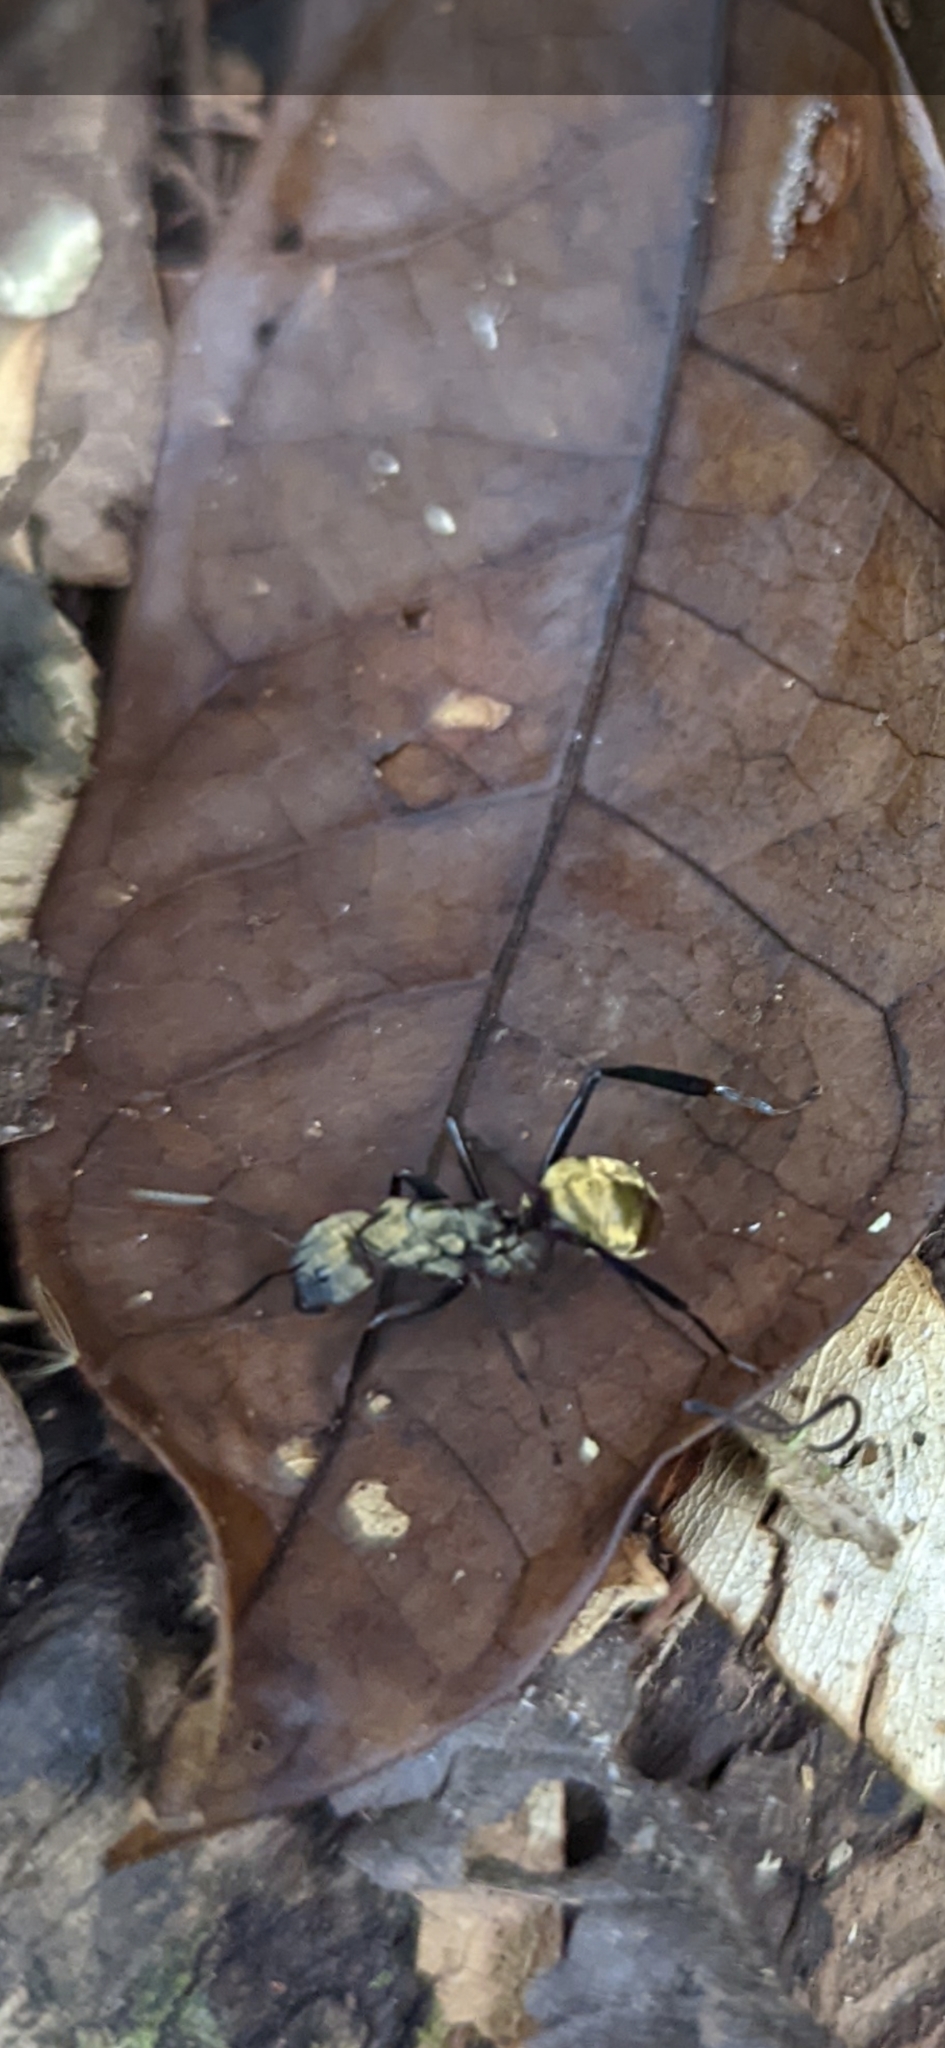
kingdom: Animalia
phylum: Arthropoda
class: Insecta
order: Hymenoptera
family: Formicidae
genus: Camponotus
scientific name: Camponotus sericeiventris
